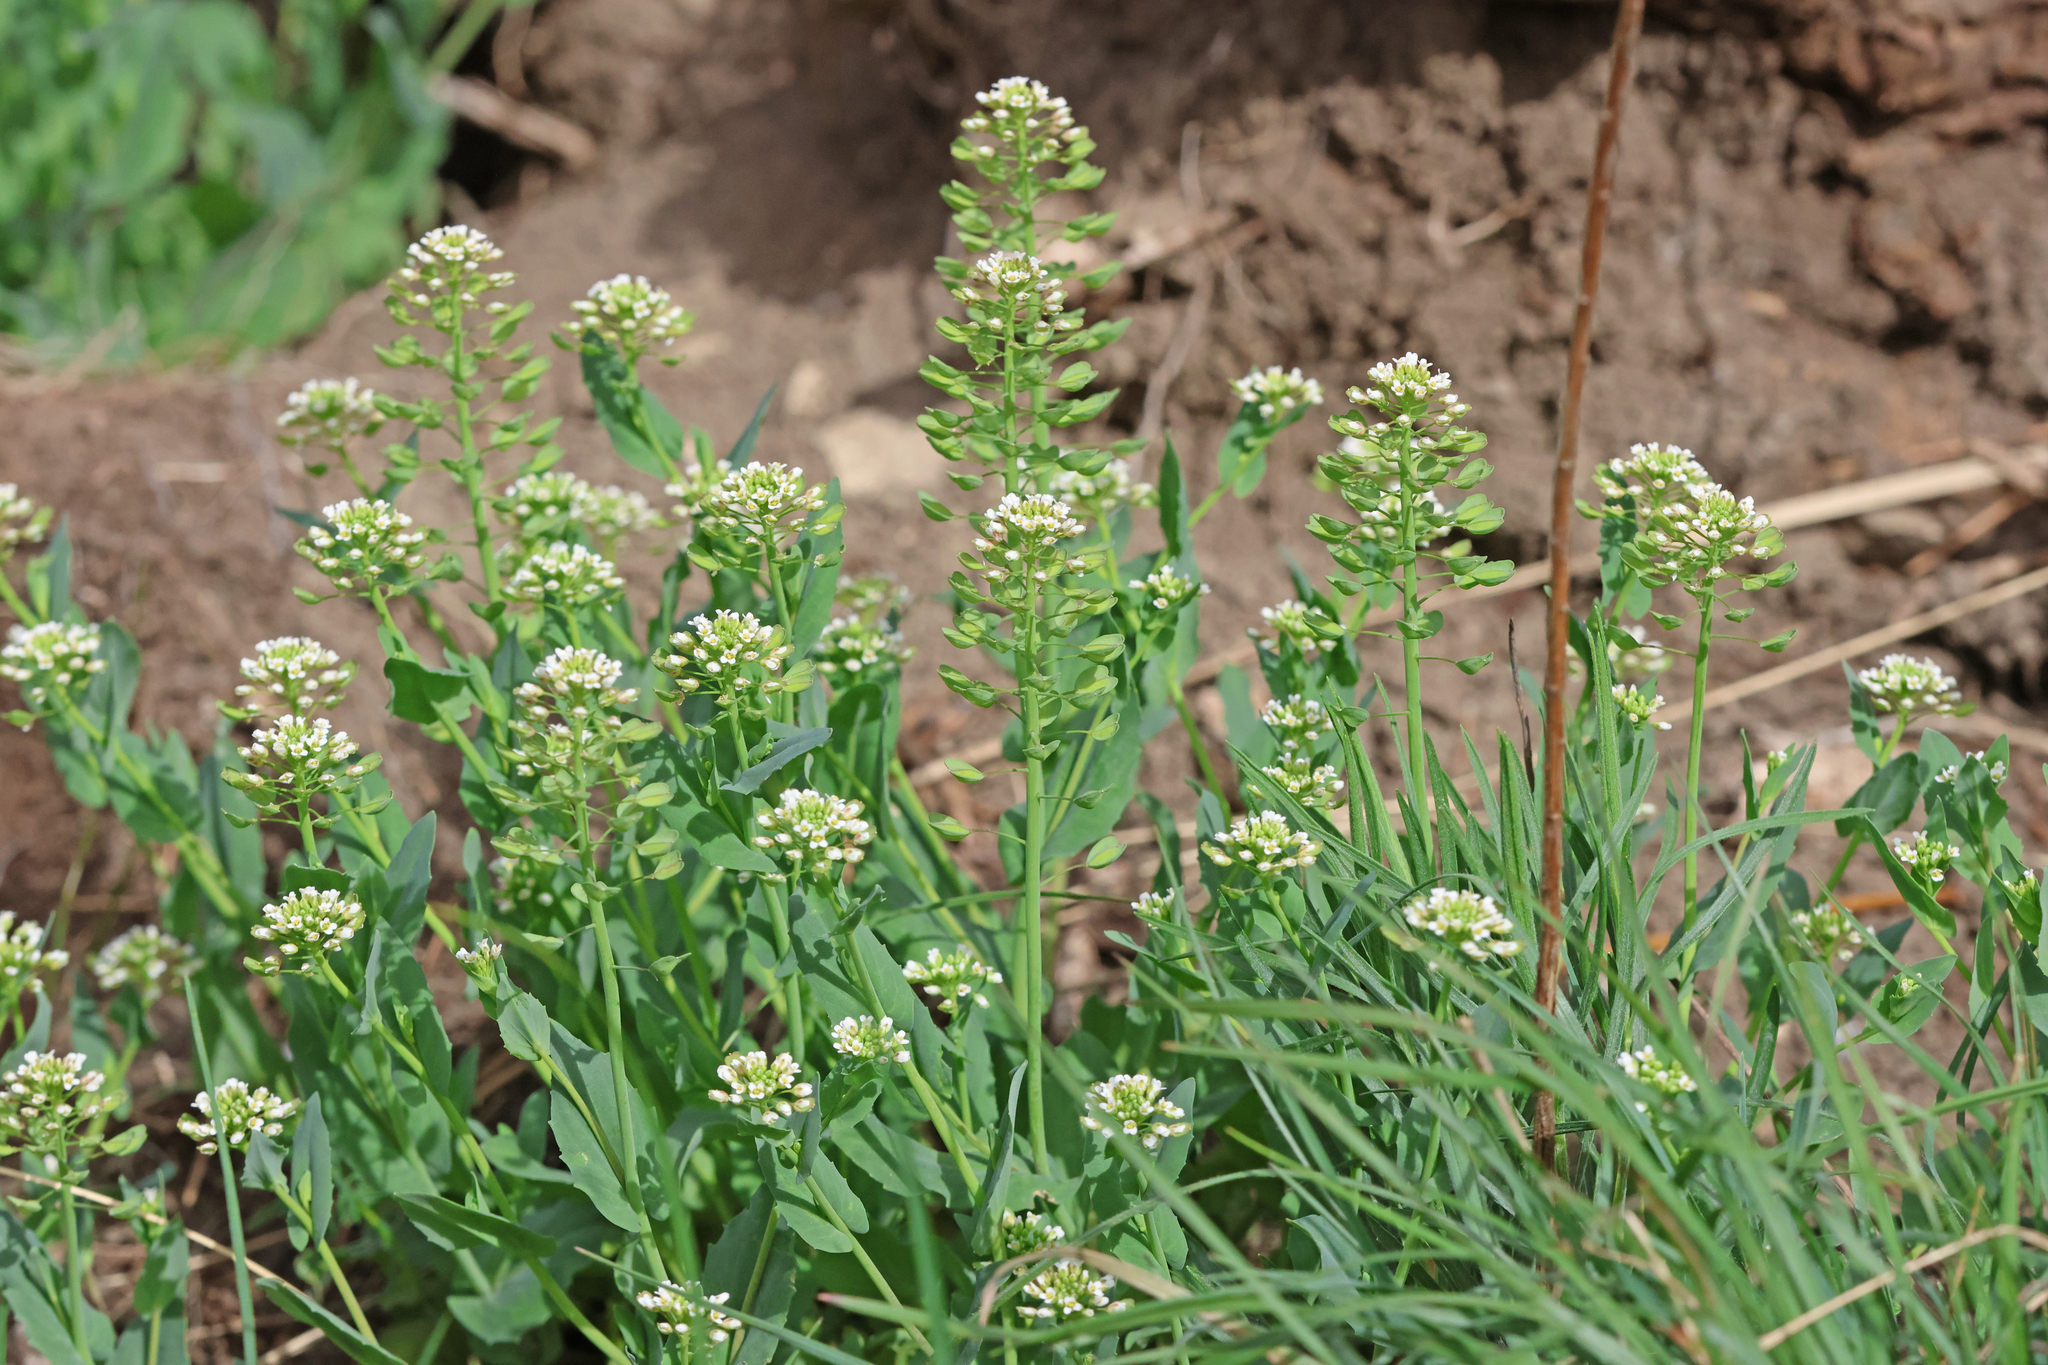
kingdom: Plantae
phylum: Tracheophyta
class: Magnoliopsida
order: Brassicales
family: Brassicaceae
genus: Noccaea
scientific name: Noccaea perfoliata
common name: Perfoliate pennycress
